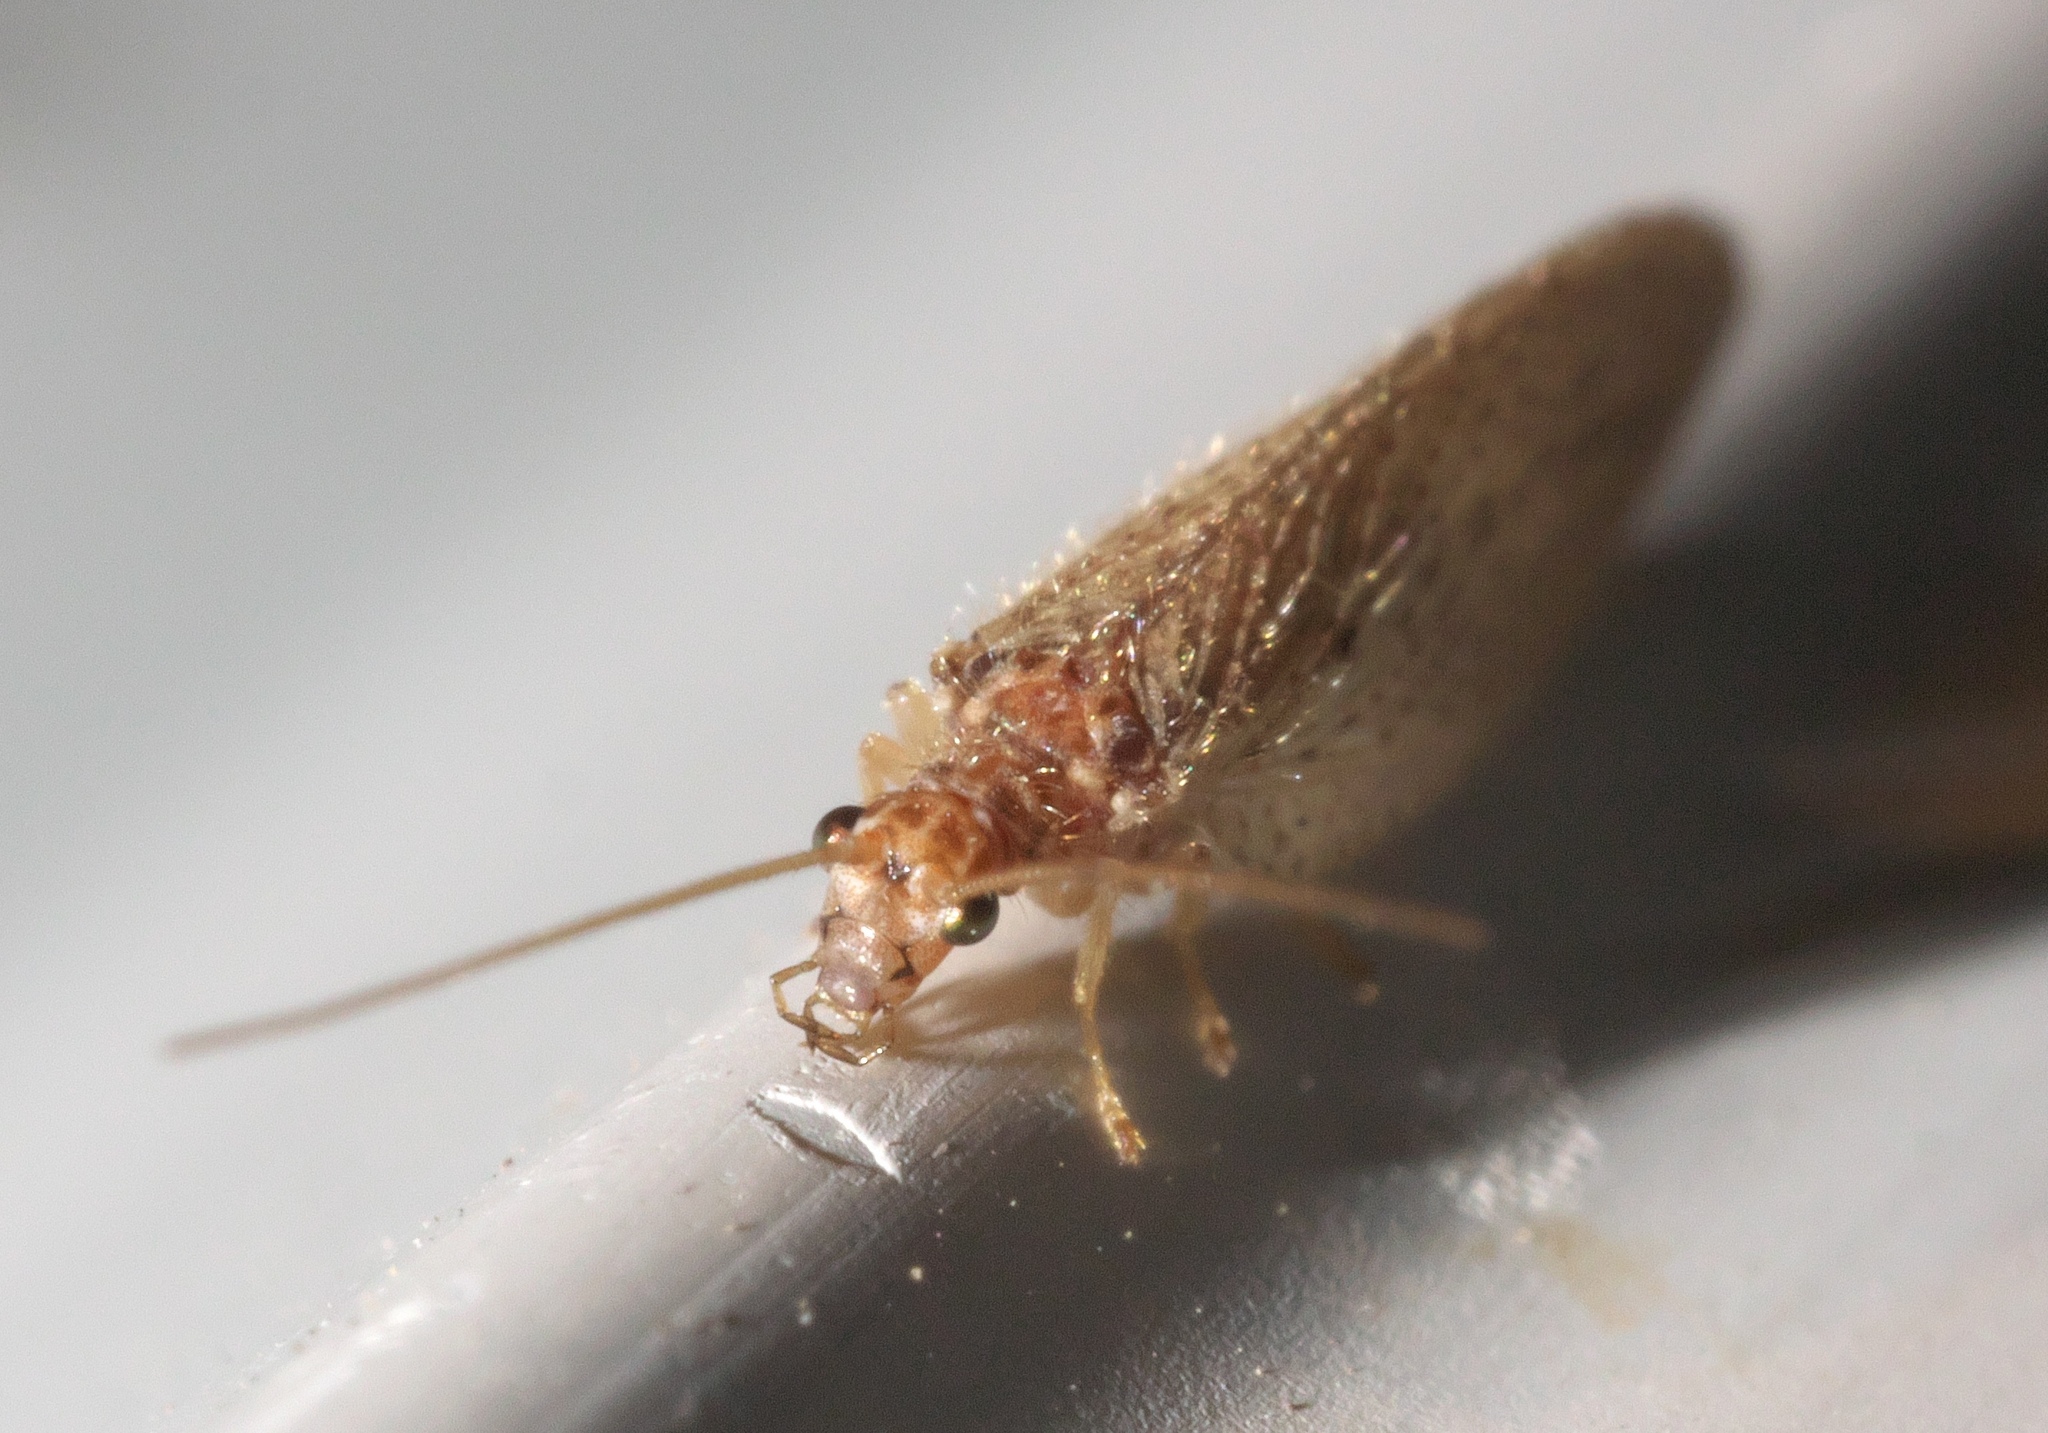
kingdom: Animalia
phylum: Arthropoda
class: Insecta
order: Neuroptera
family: Hemerobiidae
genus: Micromus
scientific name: Micromus subanticus
